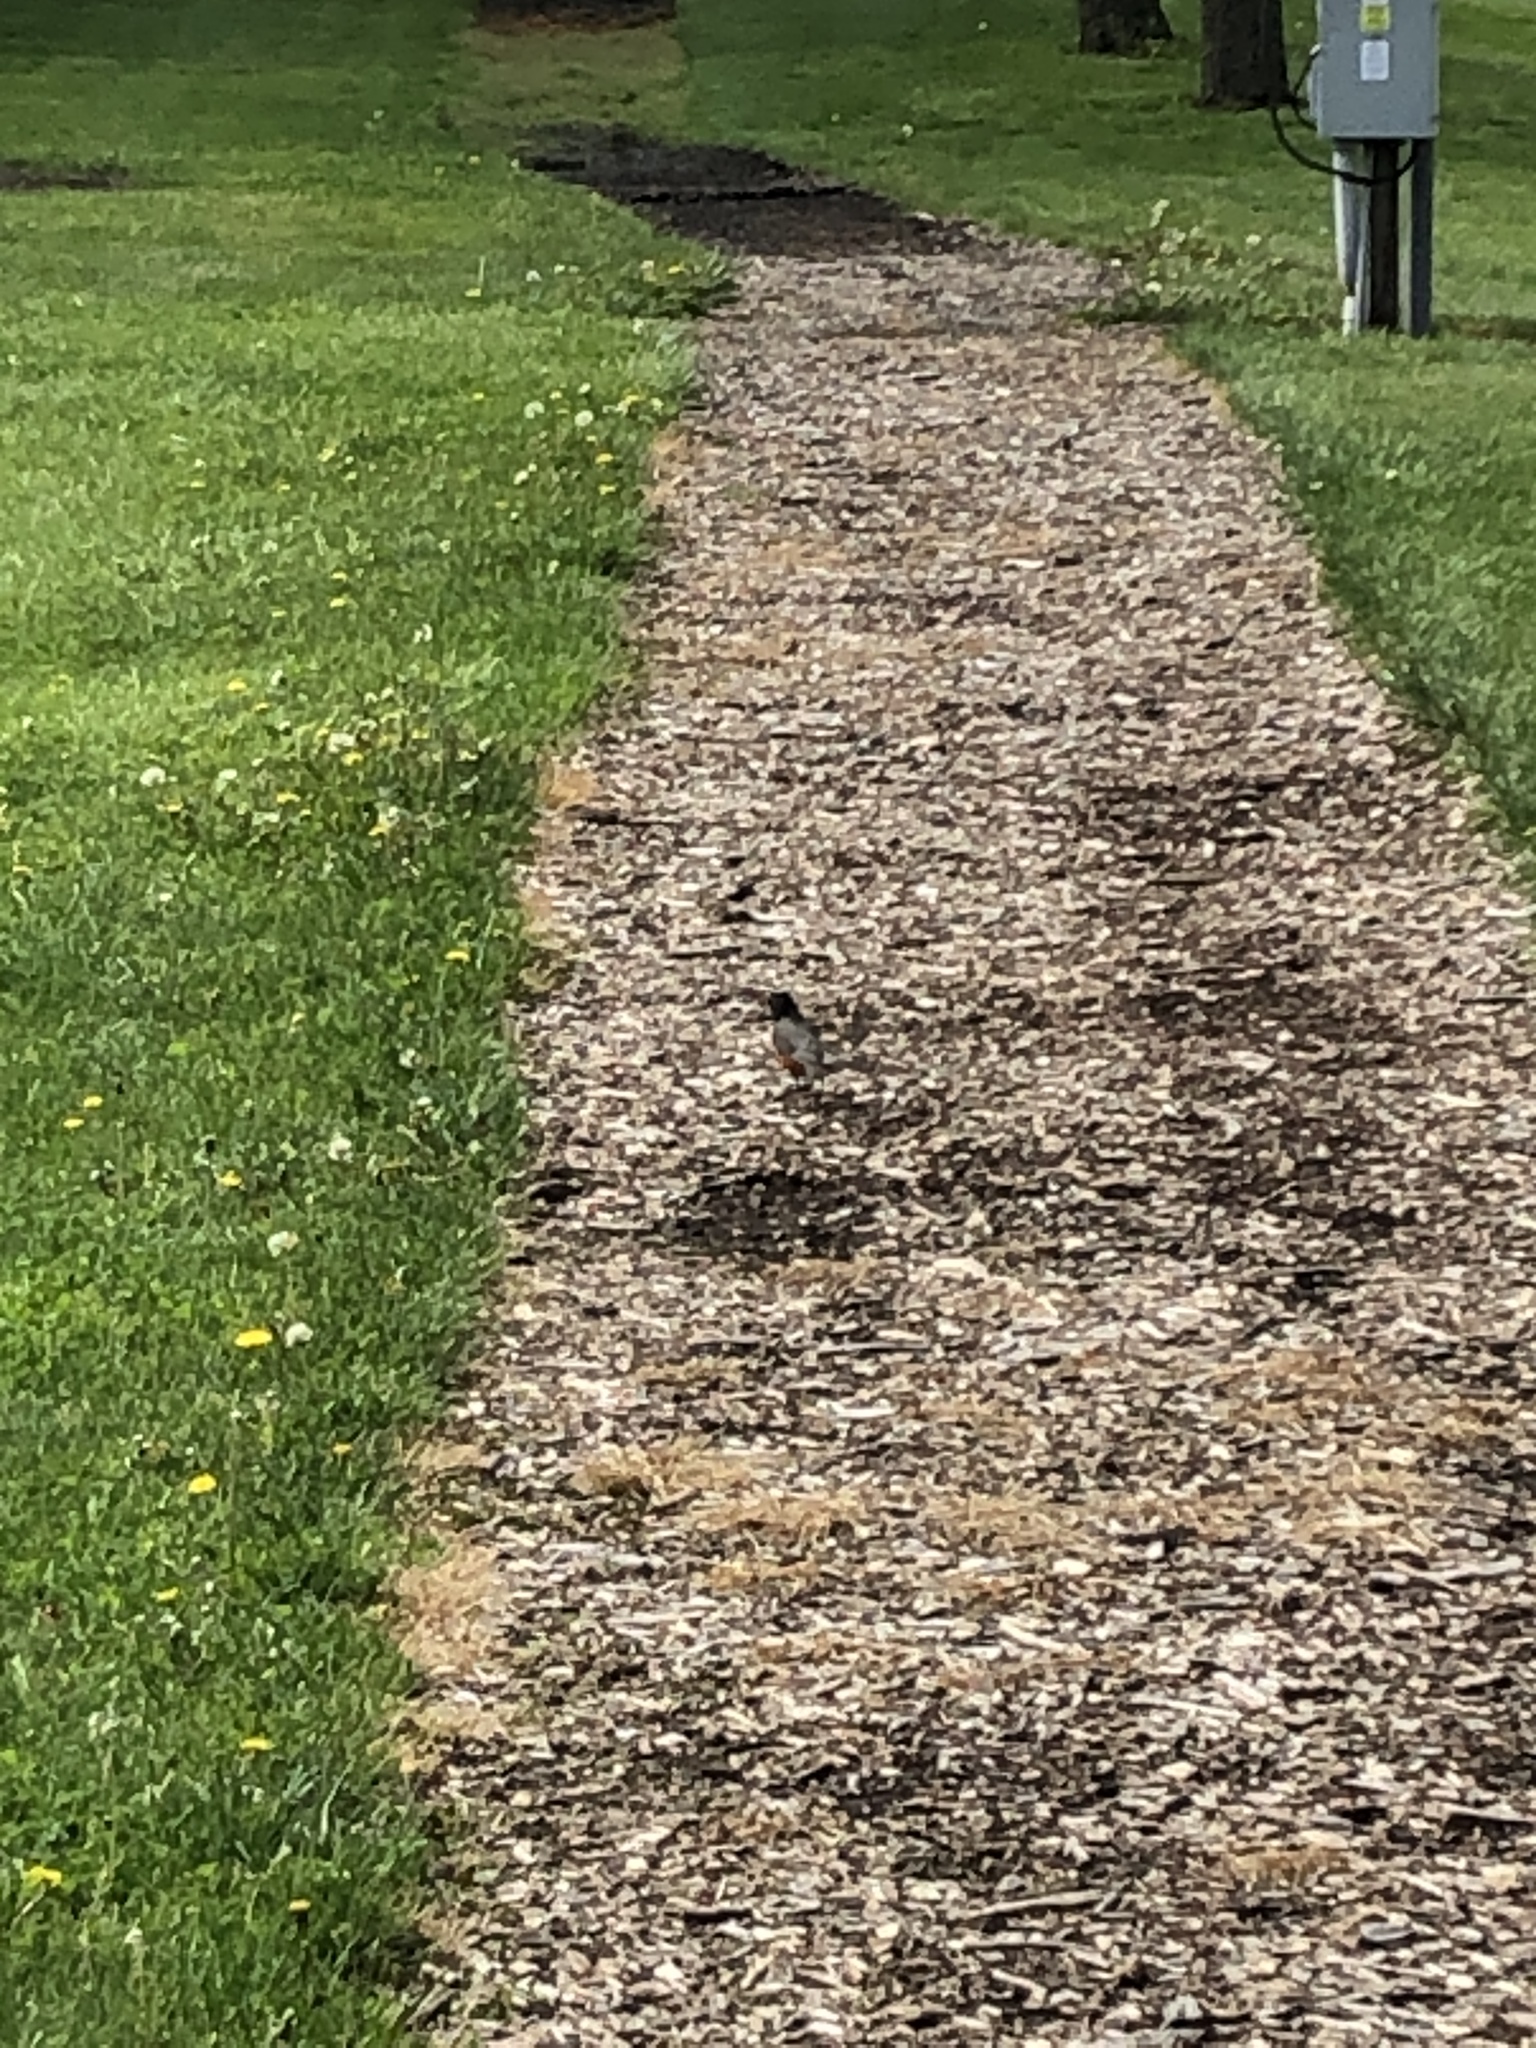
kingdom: Animalia
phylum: Chordata
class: Aves
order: Passeriformes
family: Turdidae
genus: Turdus
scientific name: Turdus migratorius
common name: American robin
